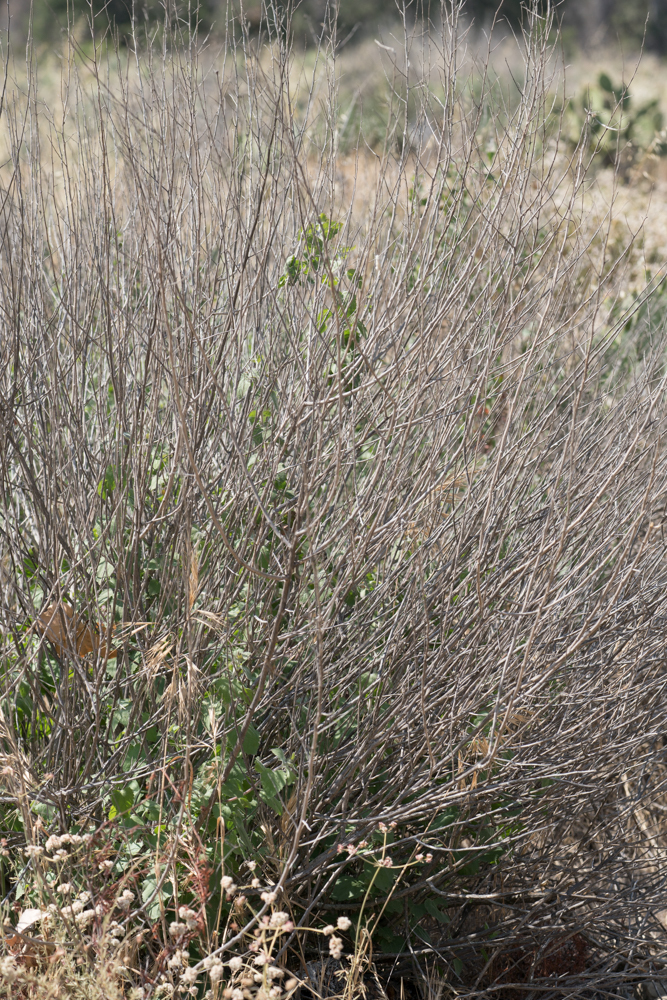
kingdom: Plantae
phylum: Tracheophyta
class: Magnoliopsida
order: Asterales
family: Asteraceae
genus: Brickellia
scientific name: Brickellia californica
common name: California brickellbush
